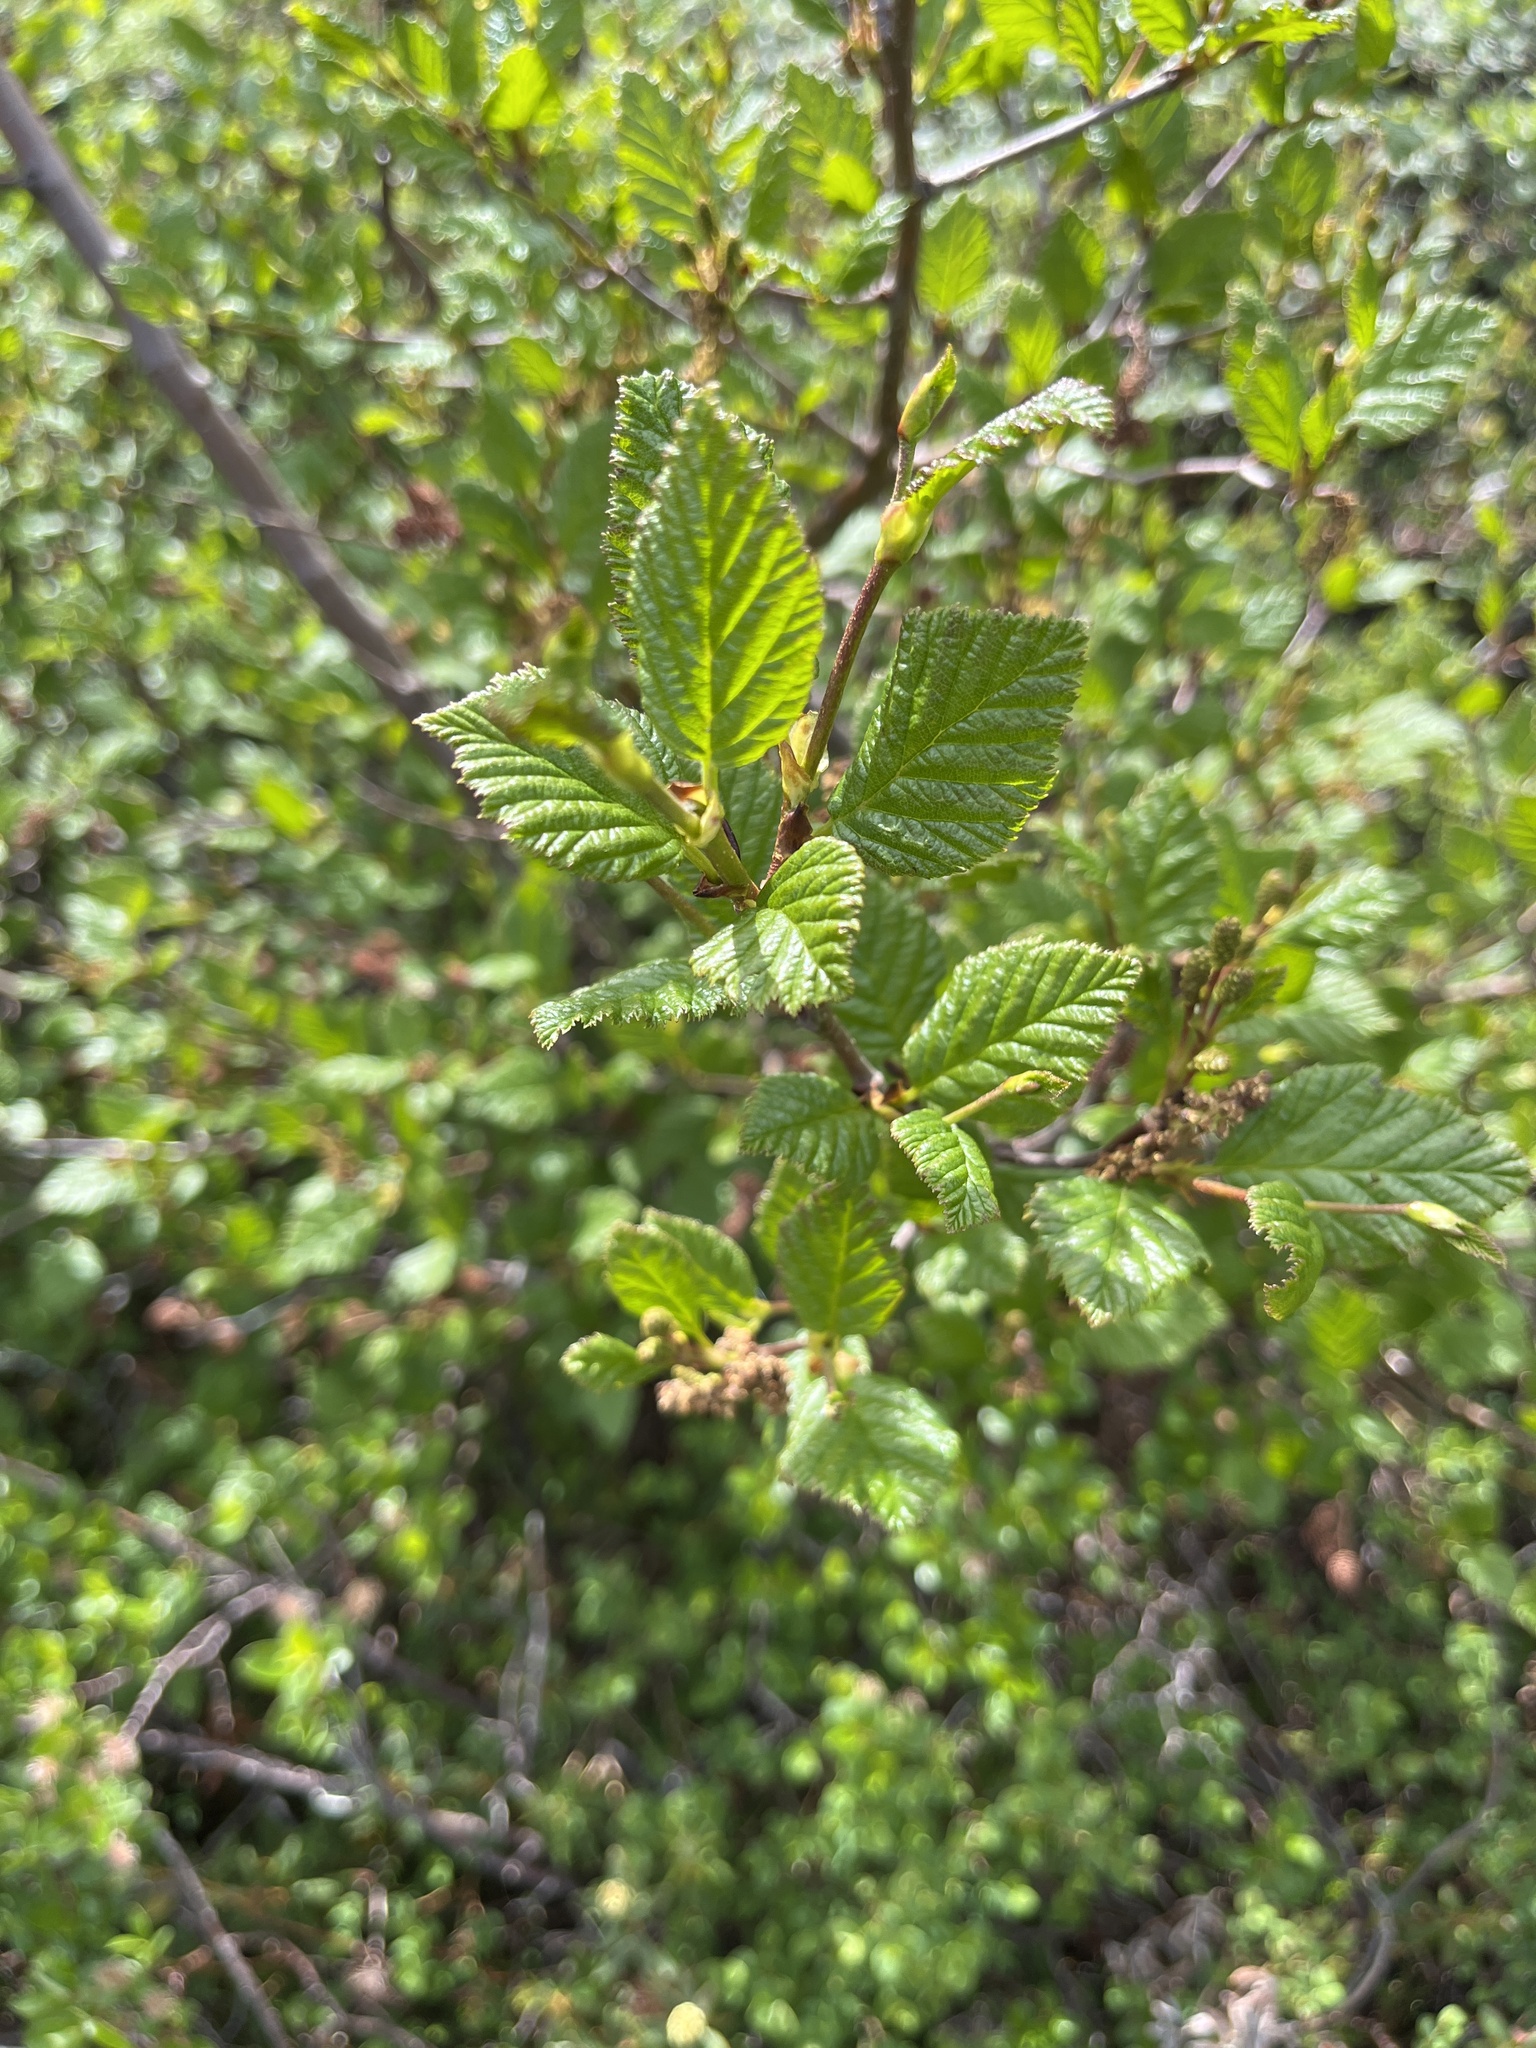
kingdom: Plantae
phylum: Tracheophyta
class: Magnoliopsida
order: Fagales
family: Betulaceae
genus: Alnus
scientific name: Alnus alnobetula
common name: Green alder
